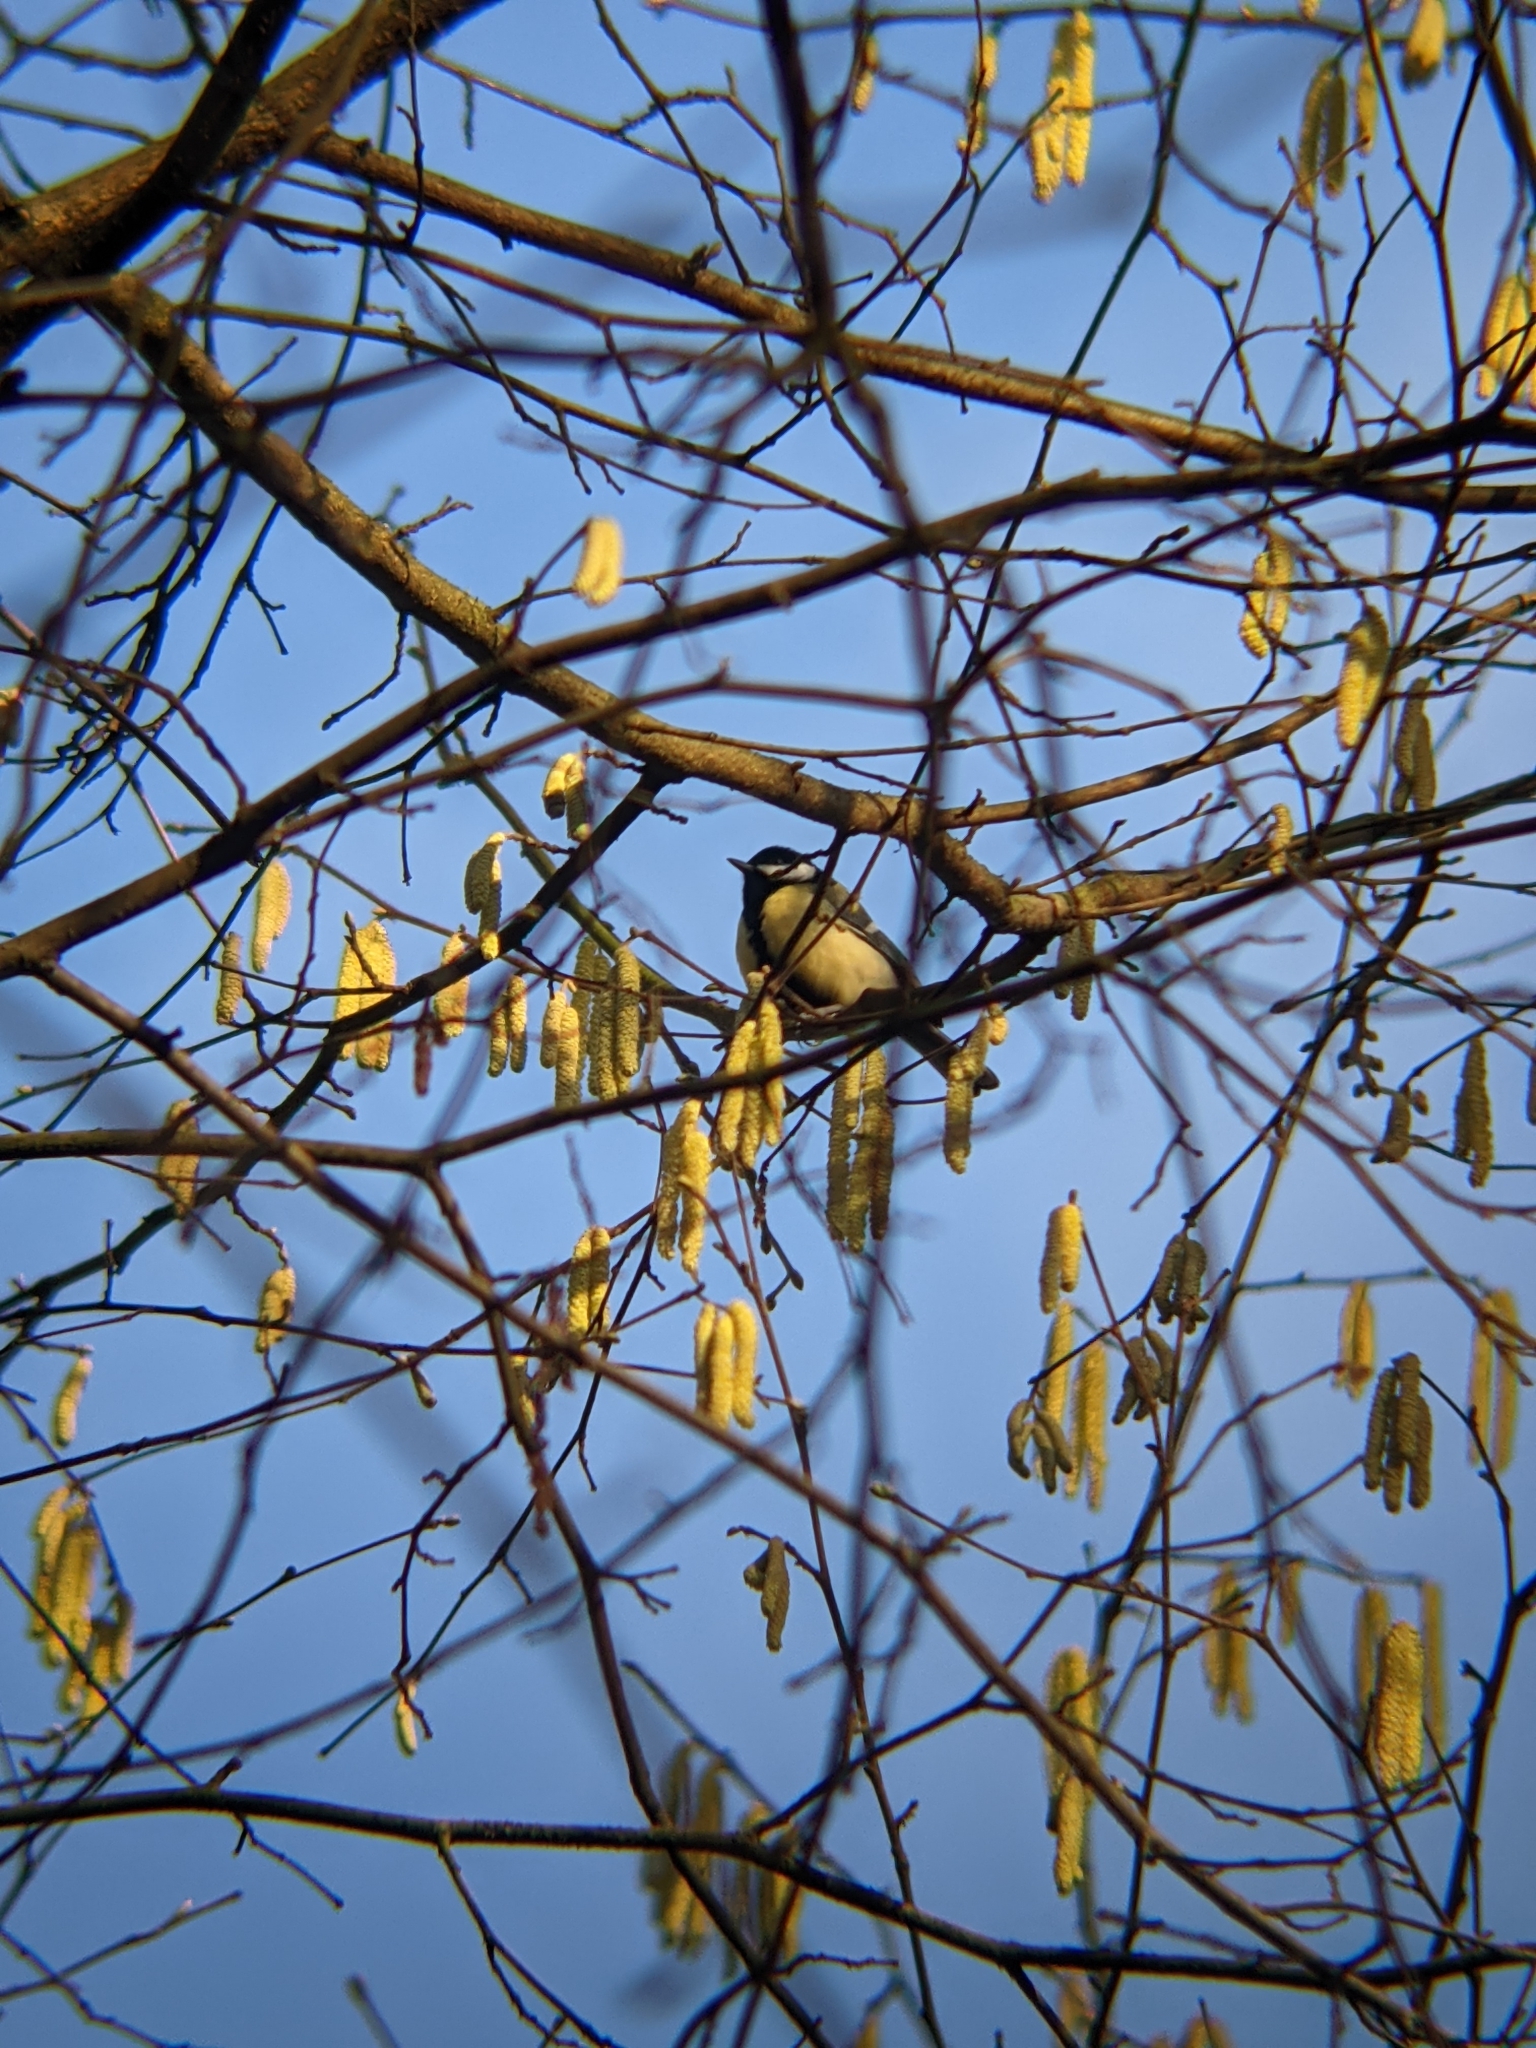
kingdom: Animalia
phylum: Chordata
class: Aves
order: Passeriformes
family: Paridae
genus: Parus
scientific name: Parus major
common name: Great tit
